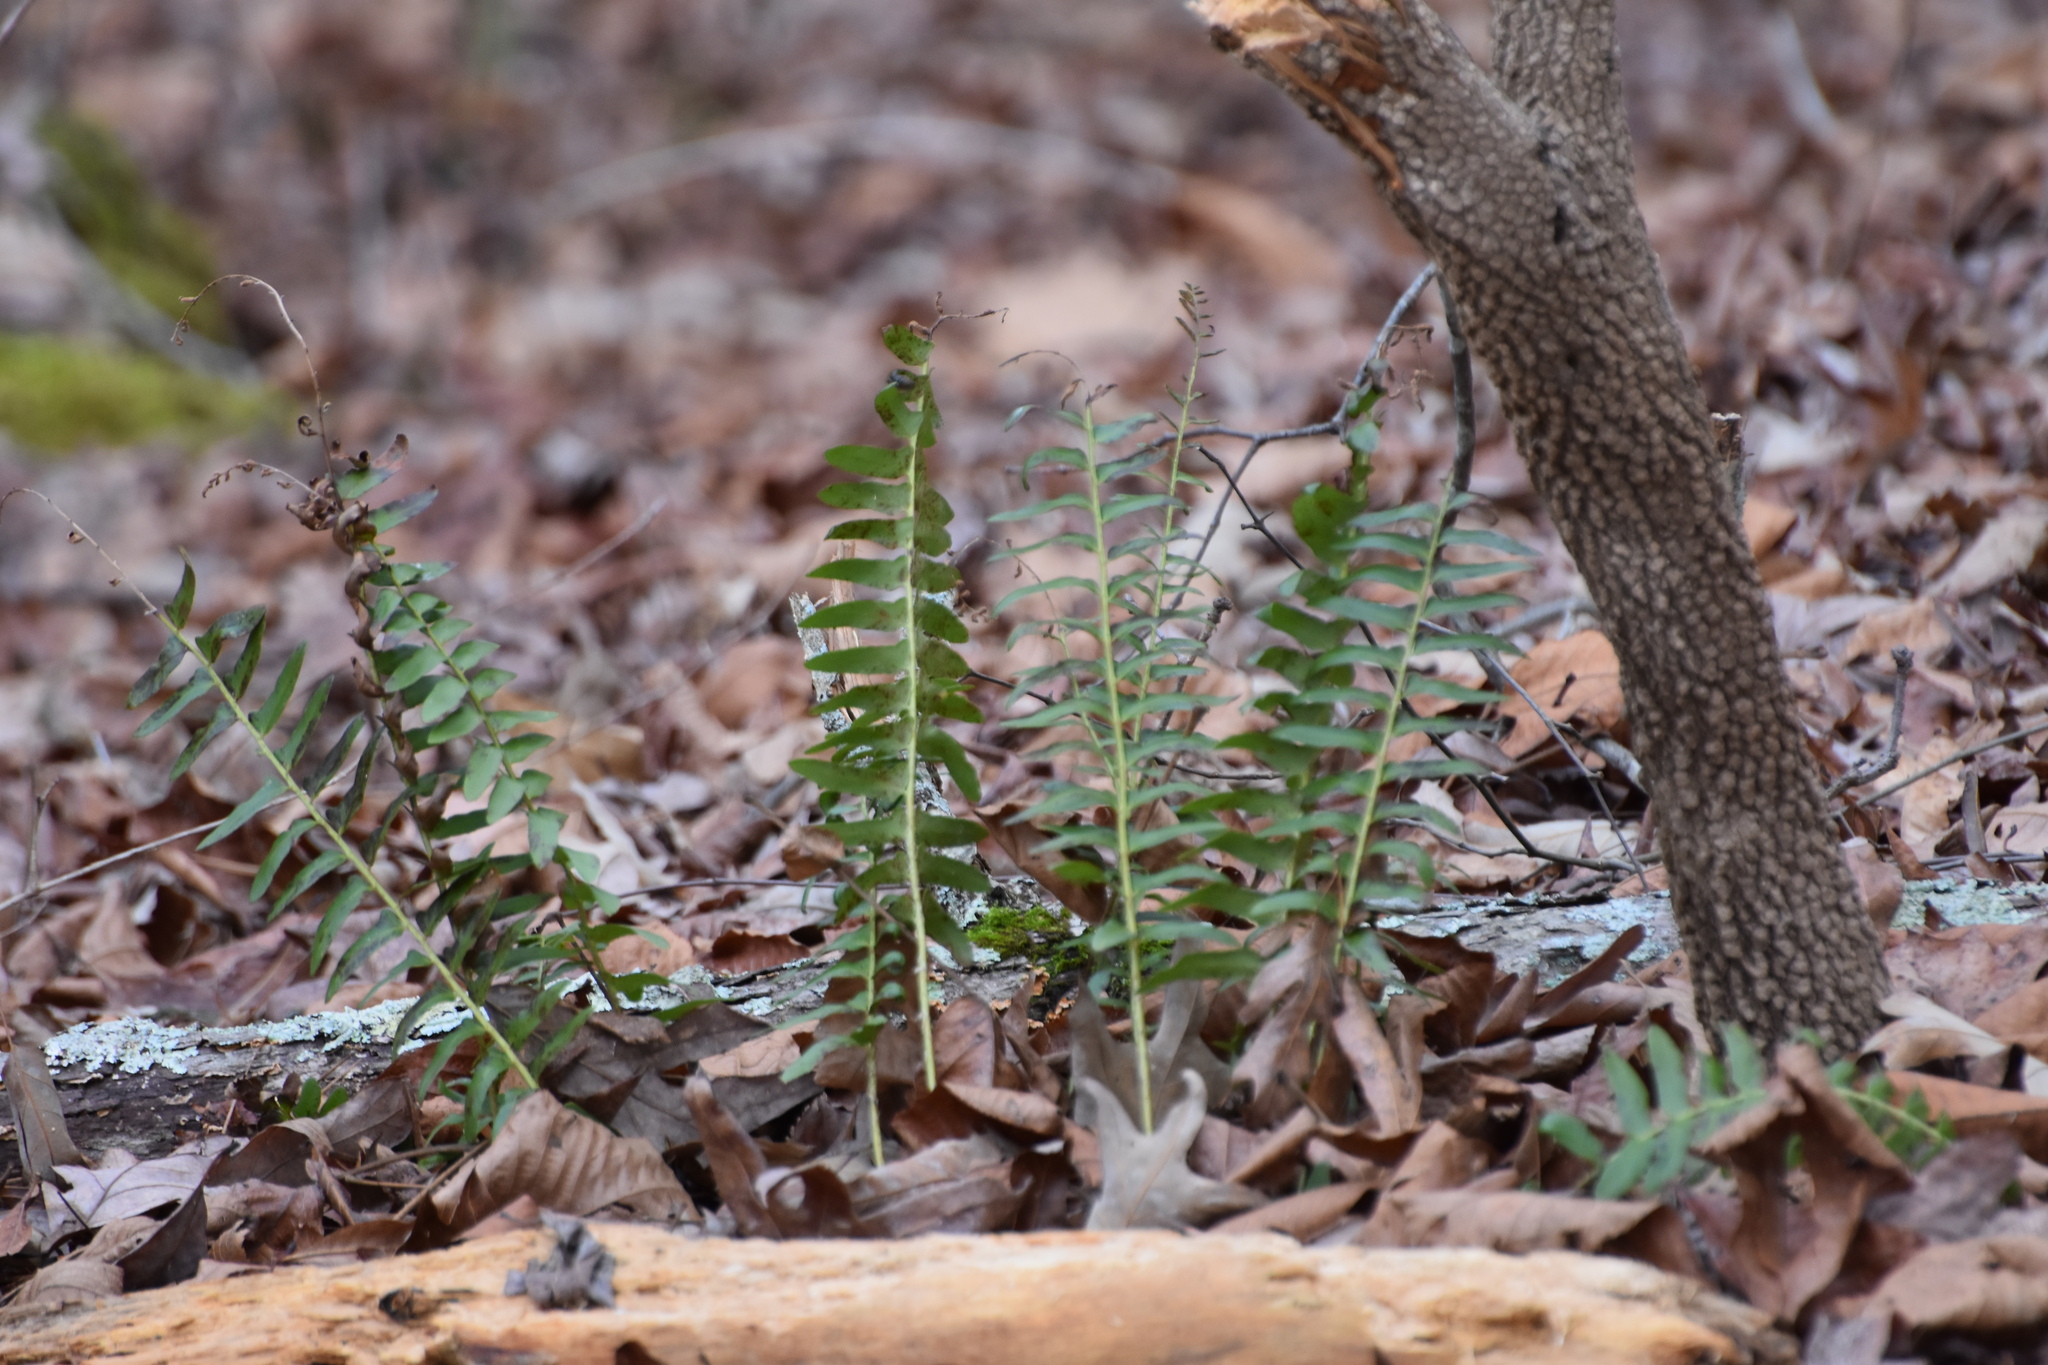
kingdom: Plantae
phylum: Tracheophyta
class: Polypodiopsida
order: Polypodiales
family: Dryopteridaceae
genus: Polystichum
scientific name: Polystichum acrostichoides
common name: Christmas fern
